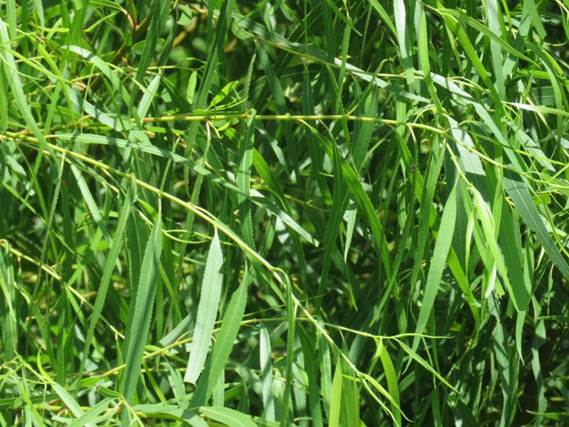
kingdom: Plantae
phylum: Tracheophyta
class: Magnoliopsida
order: Malpighiales
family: Salicaceae
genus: Salix
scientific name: Salix humboldtiana
